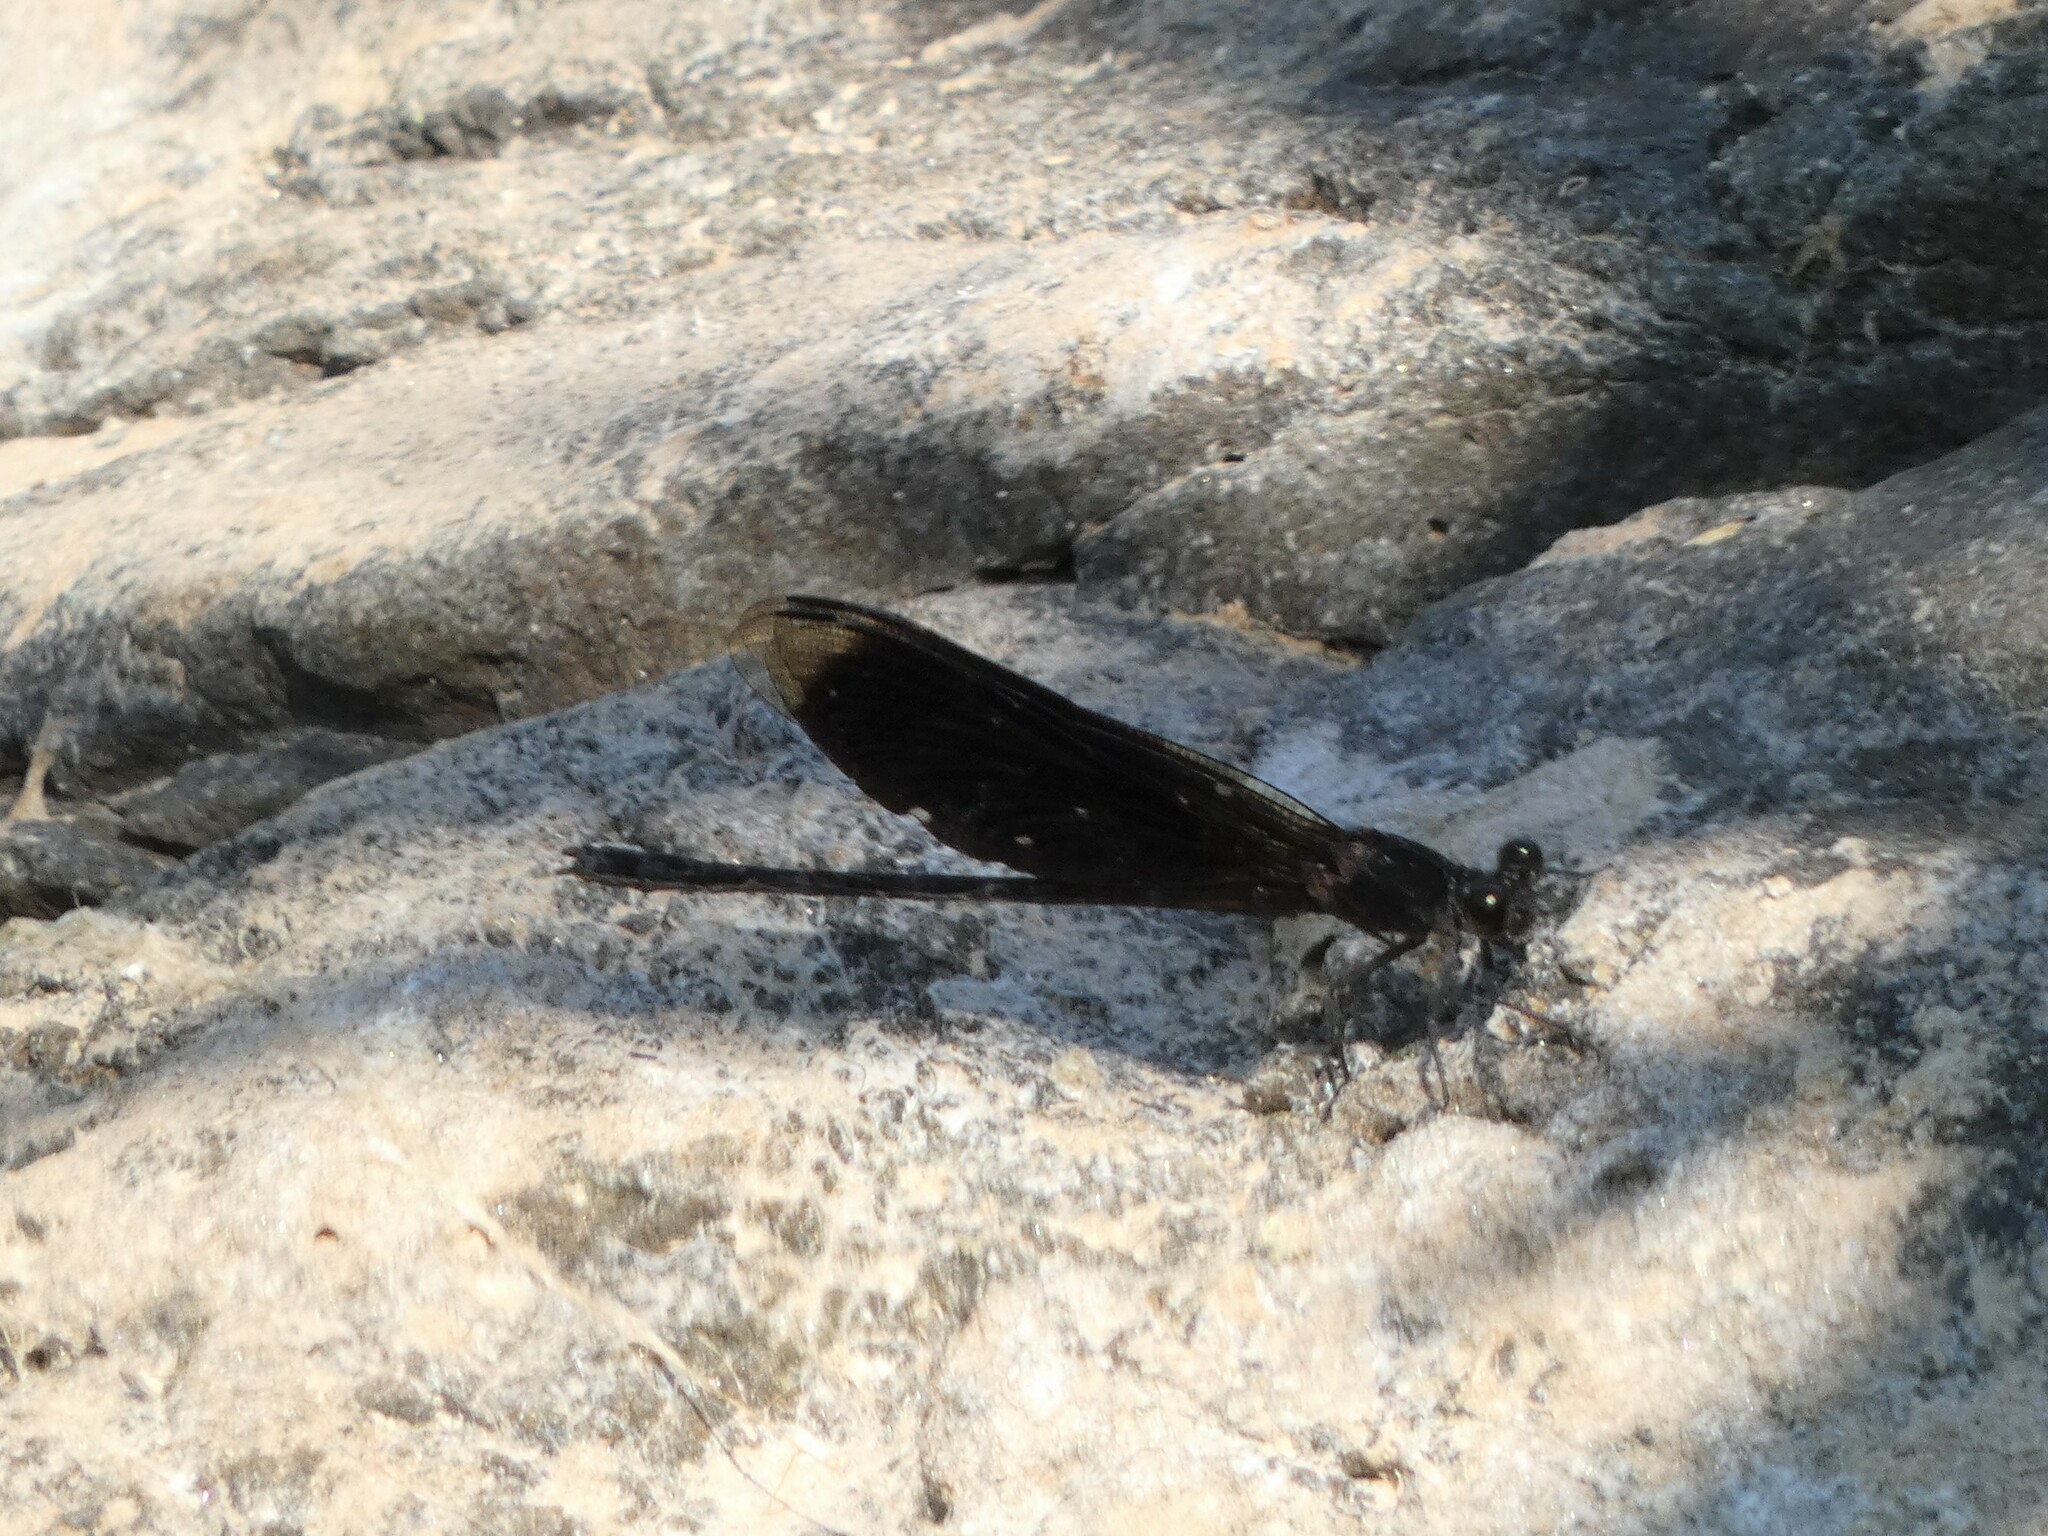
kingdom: Animalia
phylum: Arthropoda
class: Insecta
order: Odonata
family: Euphaeidae
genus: Euphaea
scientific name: Euphaea masoni
